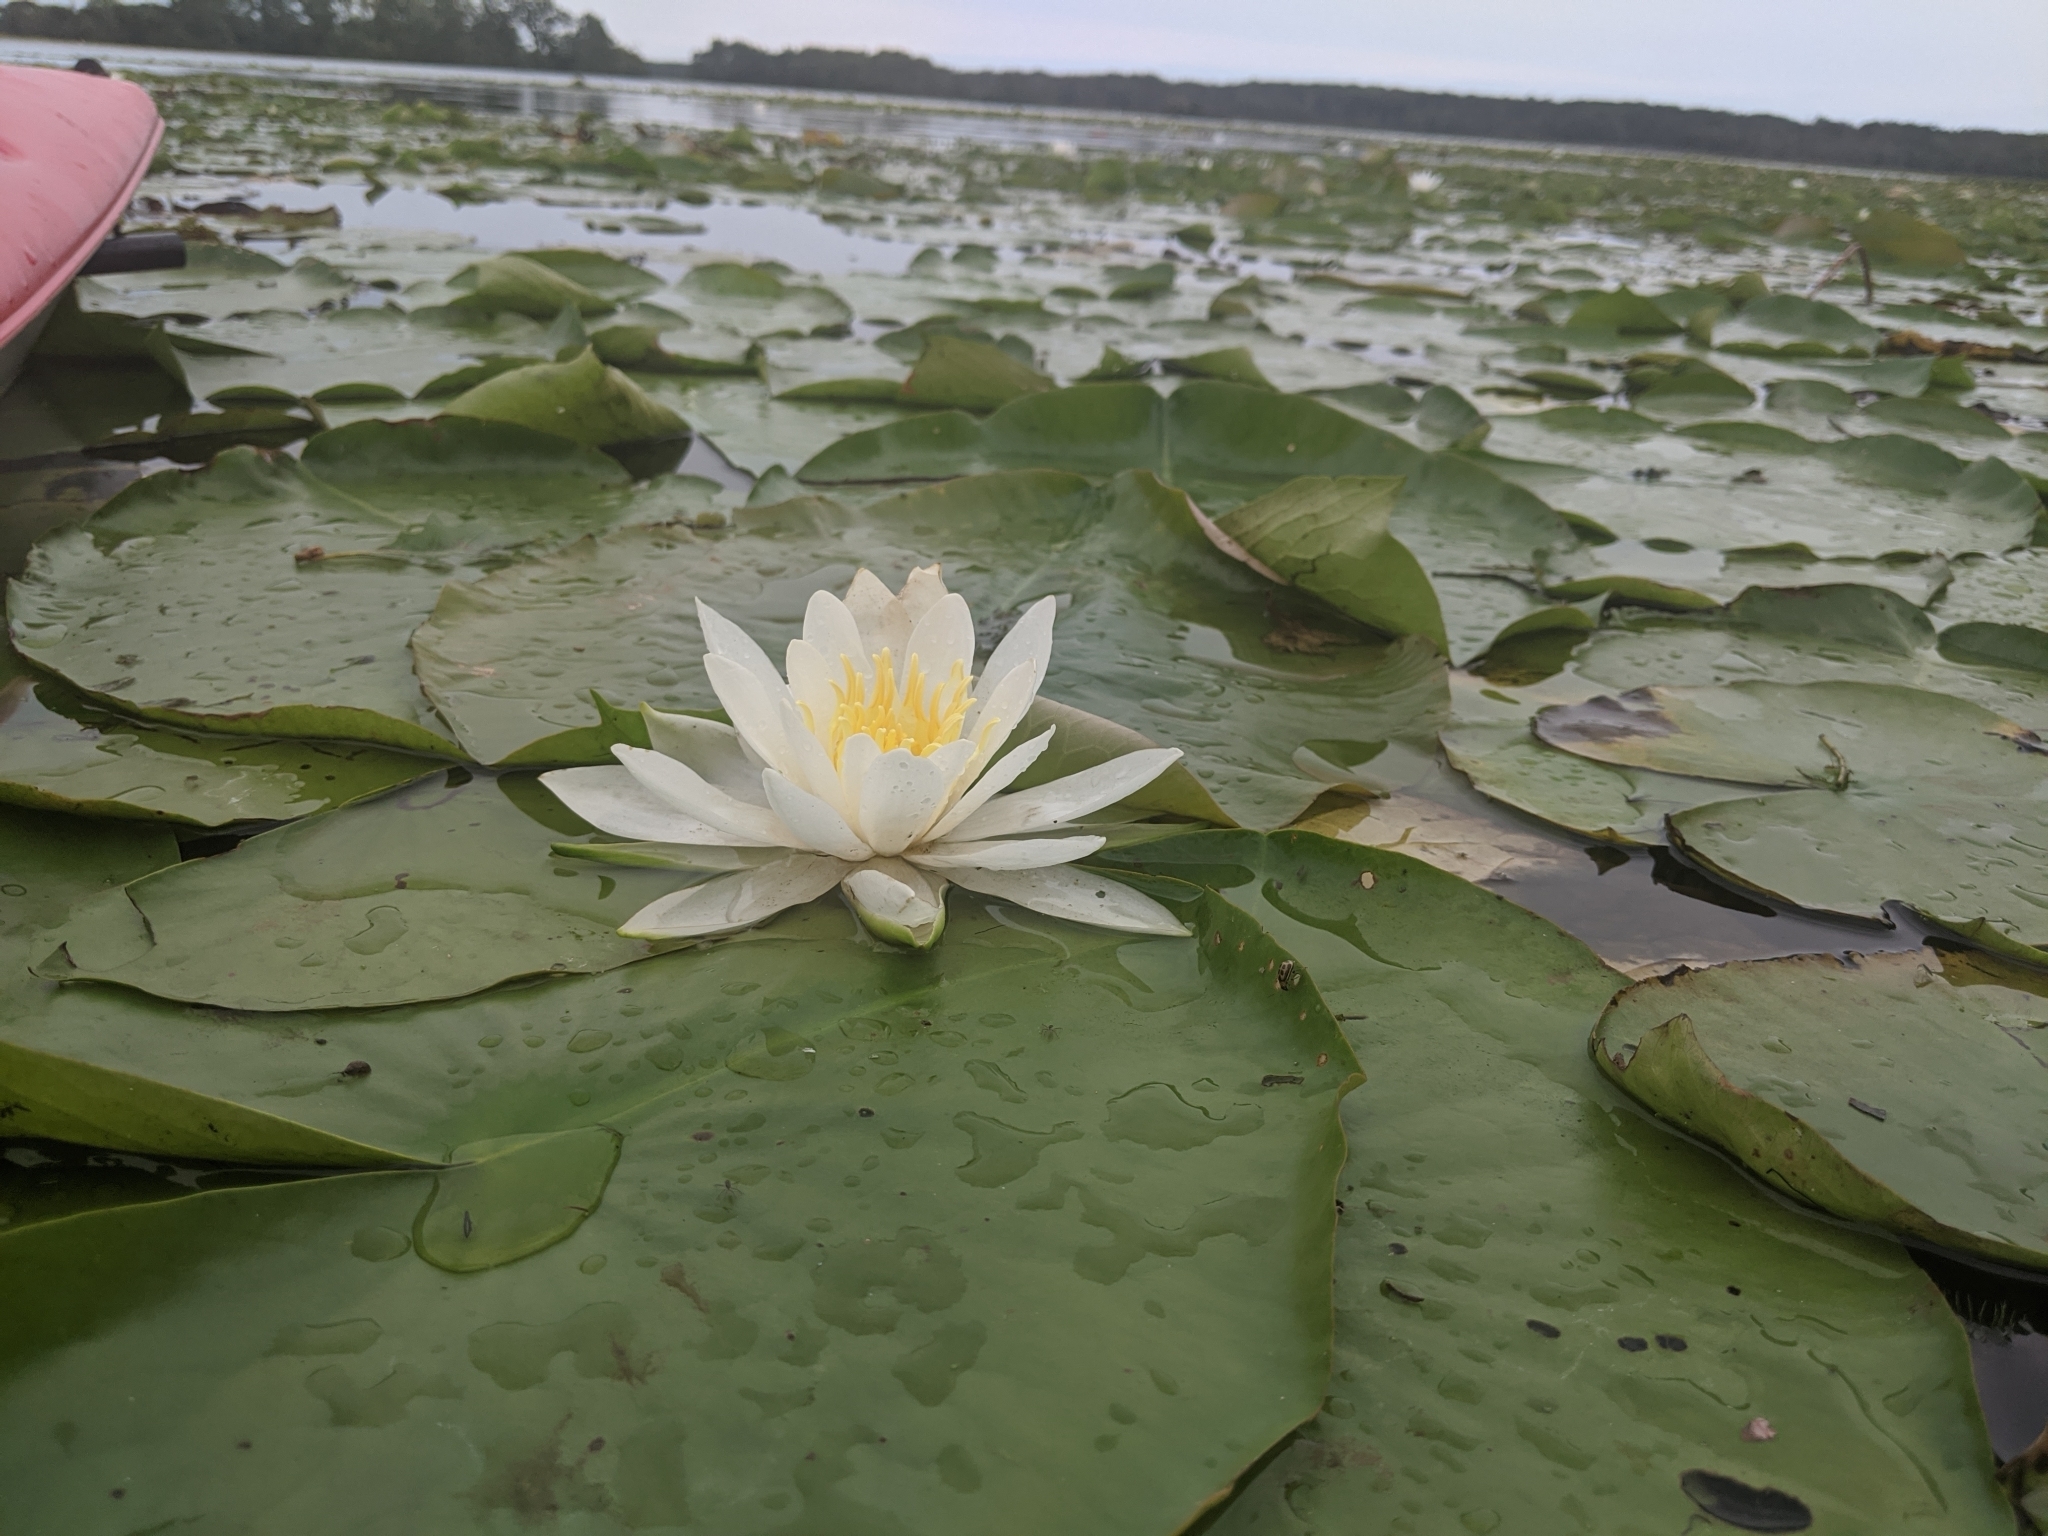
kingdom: Plantae
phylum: Tracheophyta
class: Magnoliopsida
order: Nymphaeales
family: Nymphaeaceae
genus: Nymphaea
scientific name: Nymphaea odorata
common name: Fragrant water-lily
